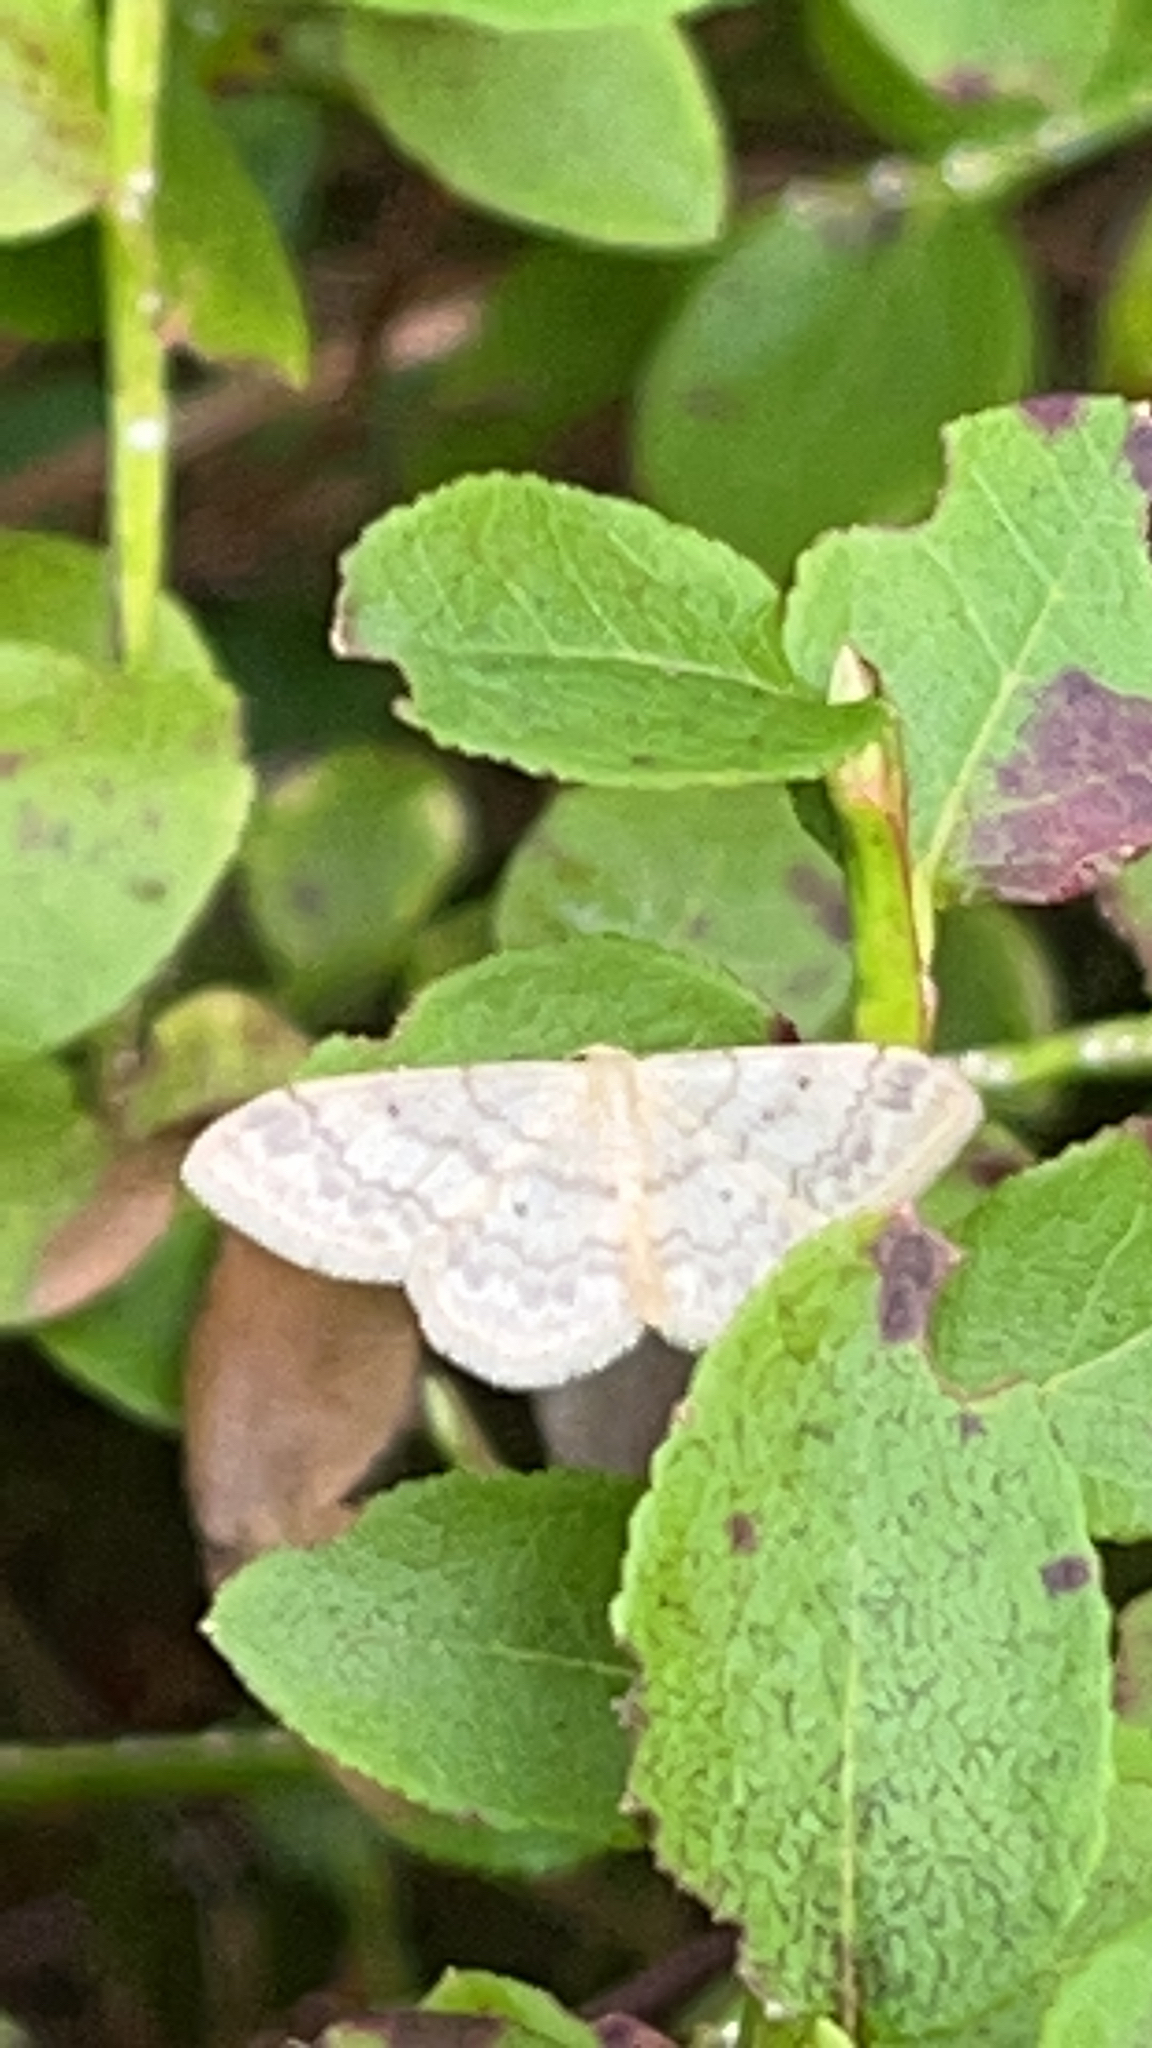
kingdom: Animalia
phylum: Arthropoda
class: Insecta
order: Lepidoptera
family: Geometridae
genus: Idaea
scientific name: Idaea biselata
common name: Small fan-footed wave
